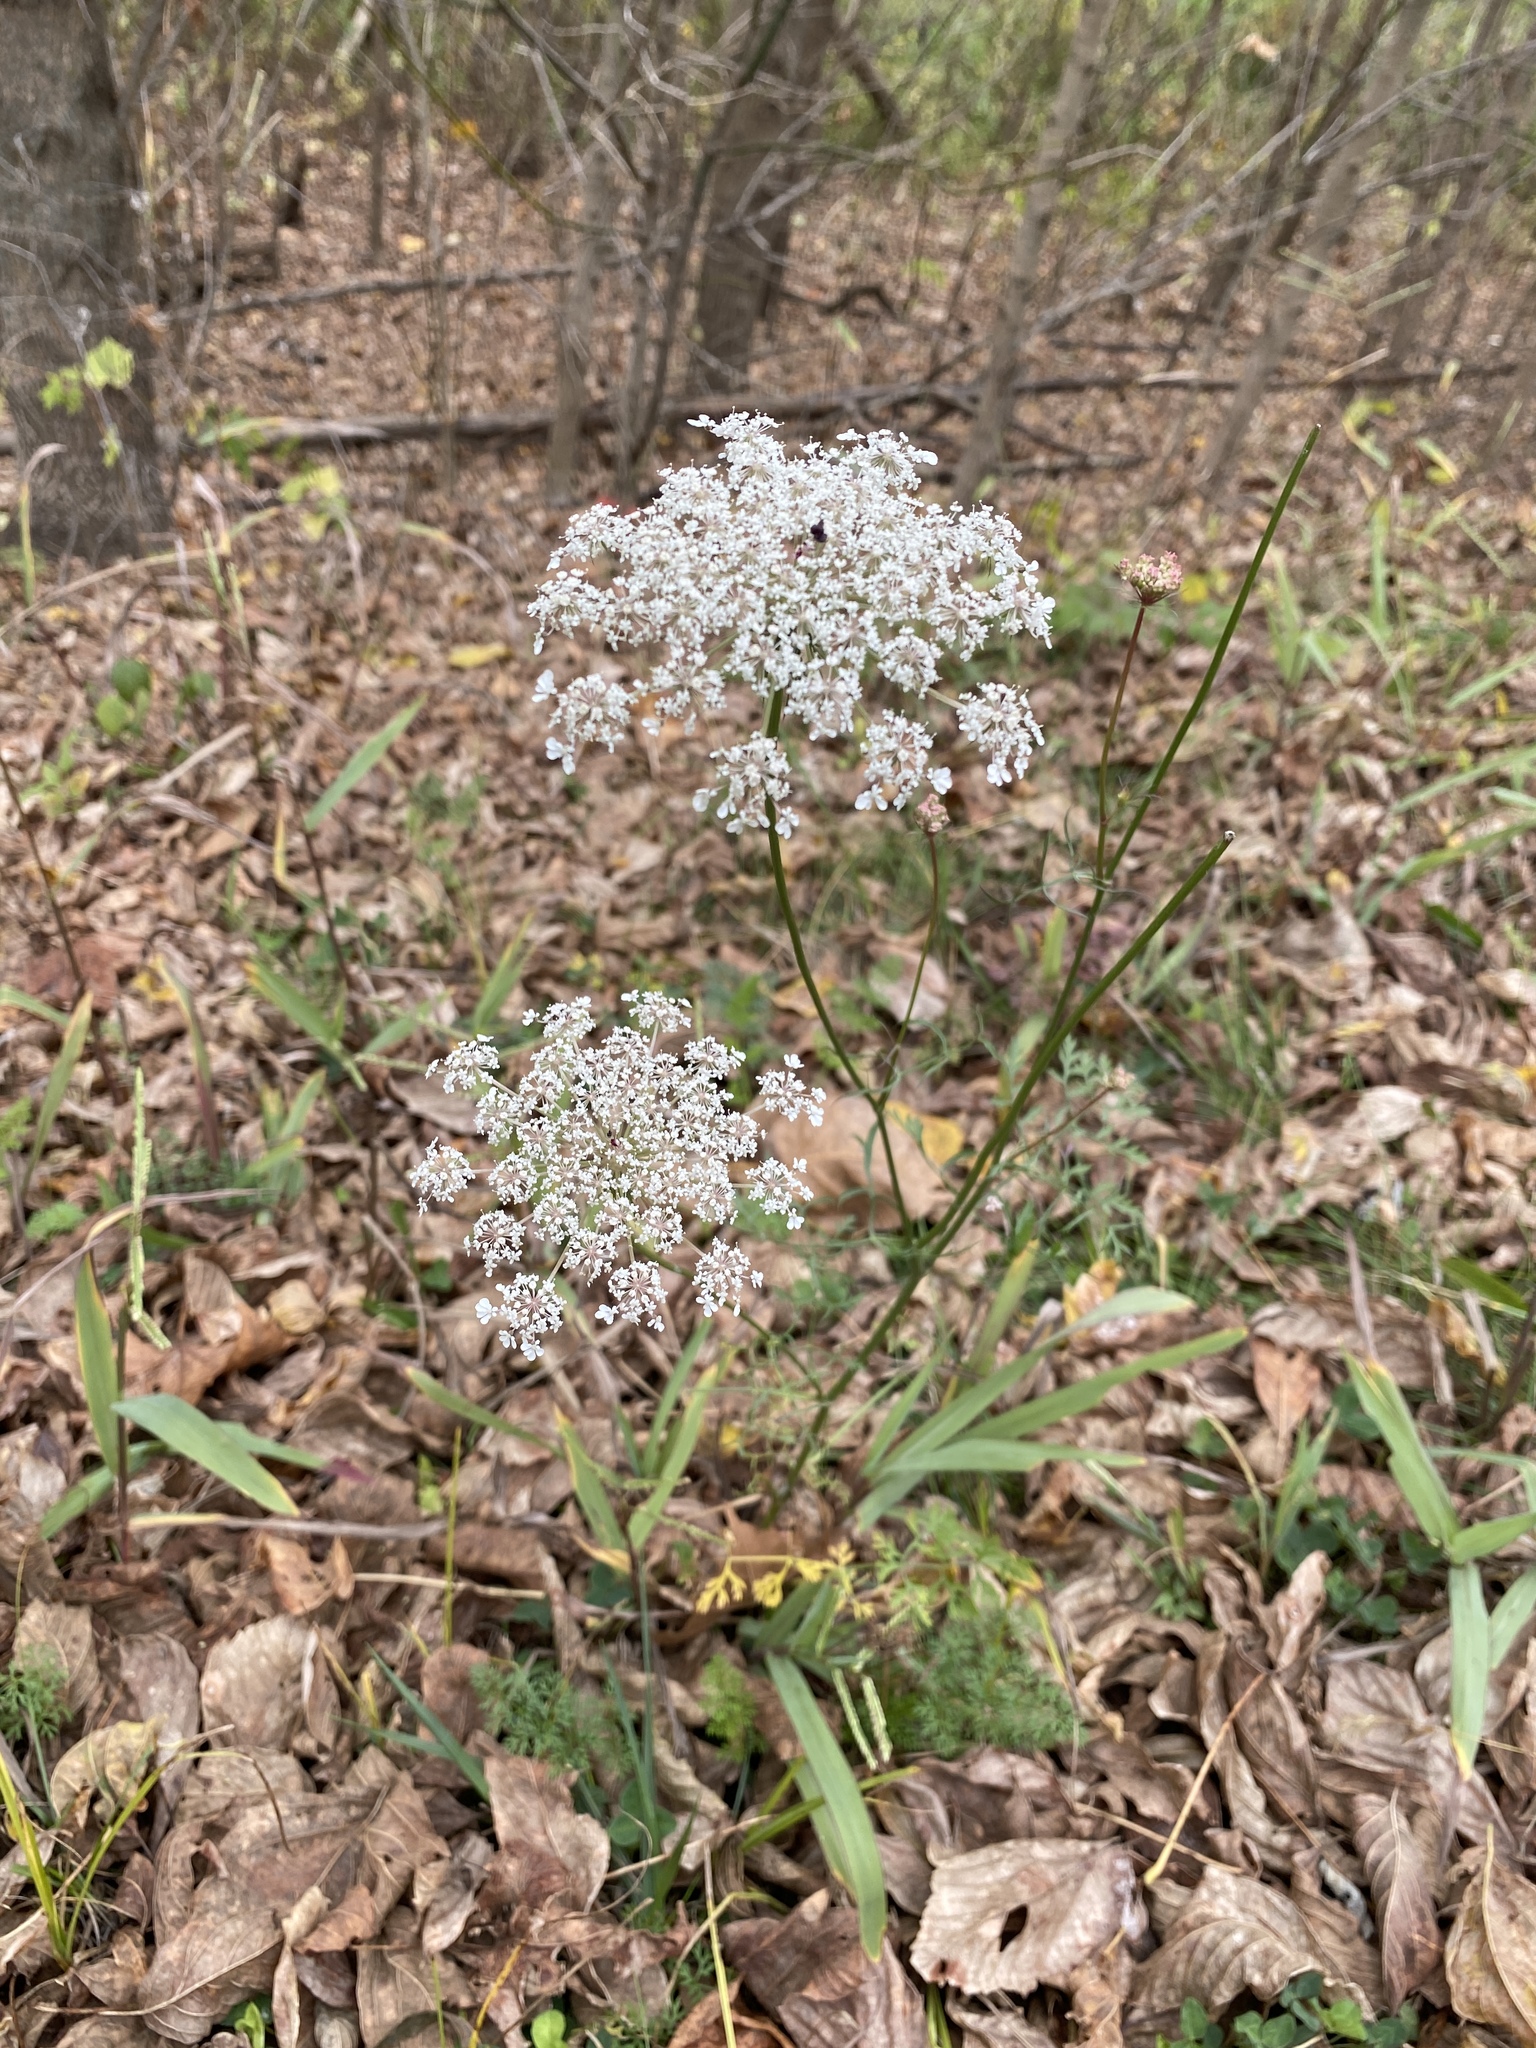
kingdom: Plantae
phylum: Tracheophyta
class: Magnoliopsida
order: Apiales
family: Apiaceae
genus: Daucus
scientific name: Daucus carota
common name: Wild carrot
